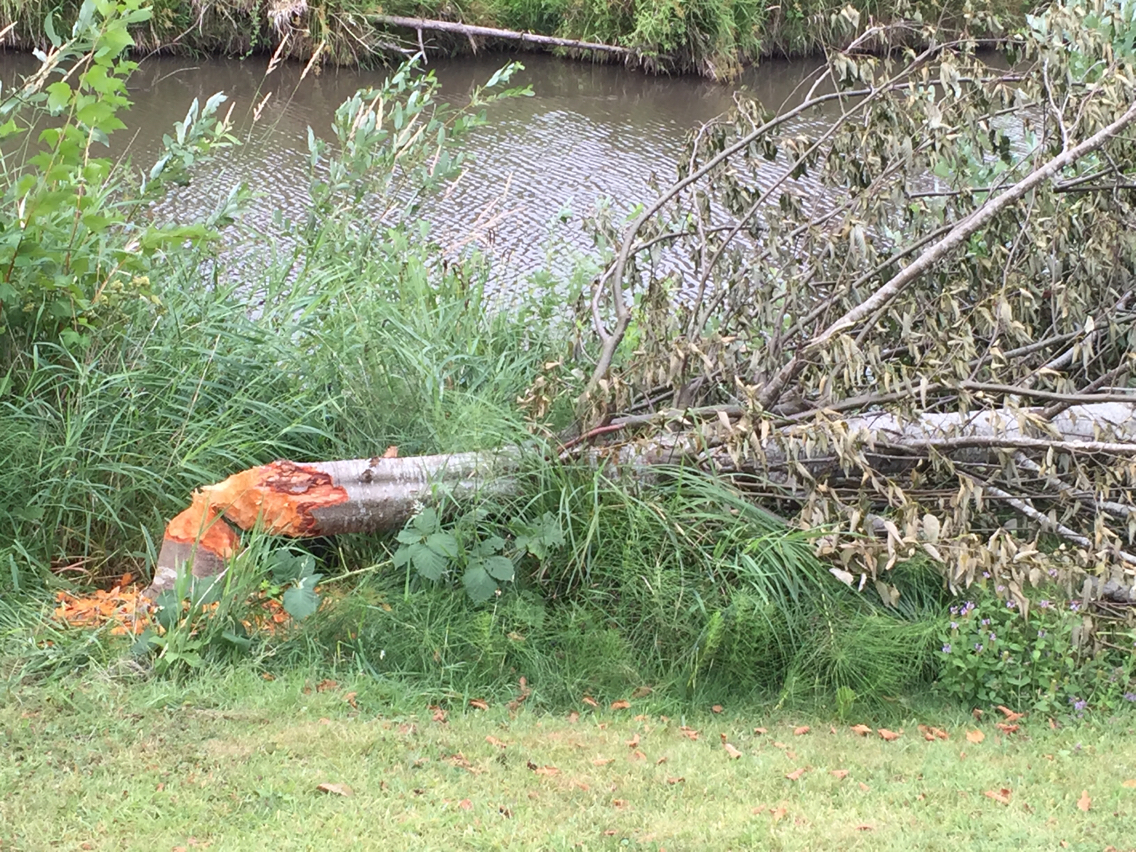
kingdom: Animalia
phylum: Chordata
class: Mammalia
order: Rodentia
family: Castoridae
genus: Castor
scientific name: Castor canadensis
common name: American beaver
